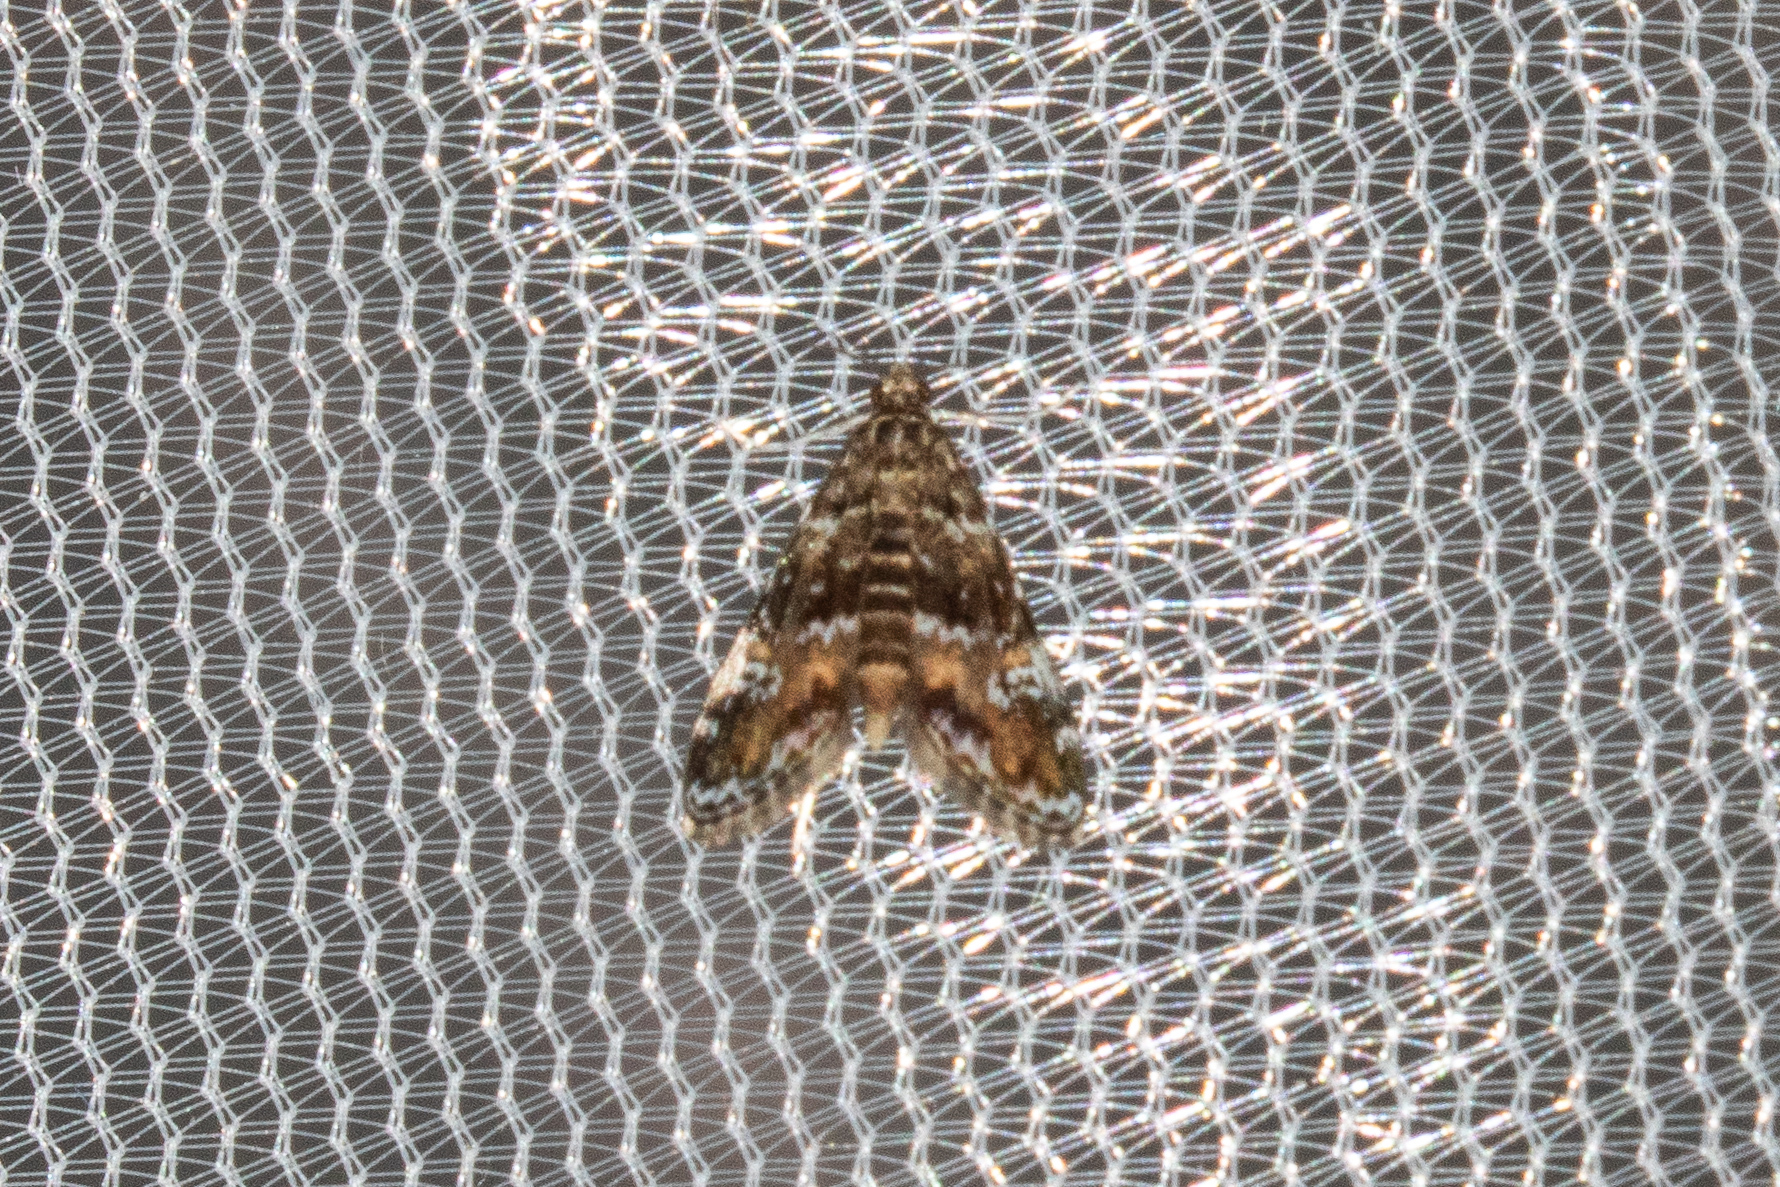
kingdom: Animalia
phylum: Arthropoda
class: Insecta
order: Lepidoptera
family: Crambidae
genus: Elophila
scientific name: Elophila obliteralis
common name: Waterlily leafcutter moth
